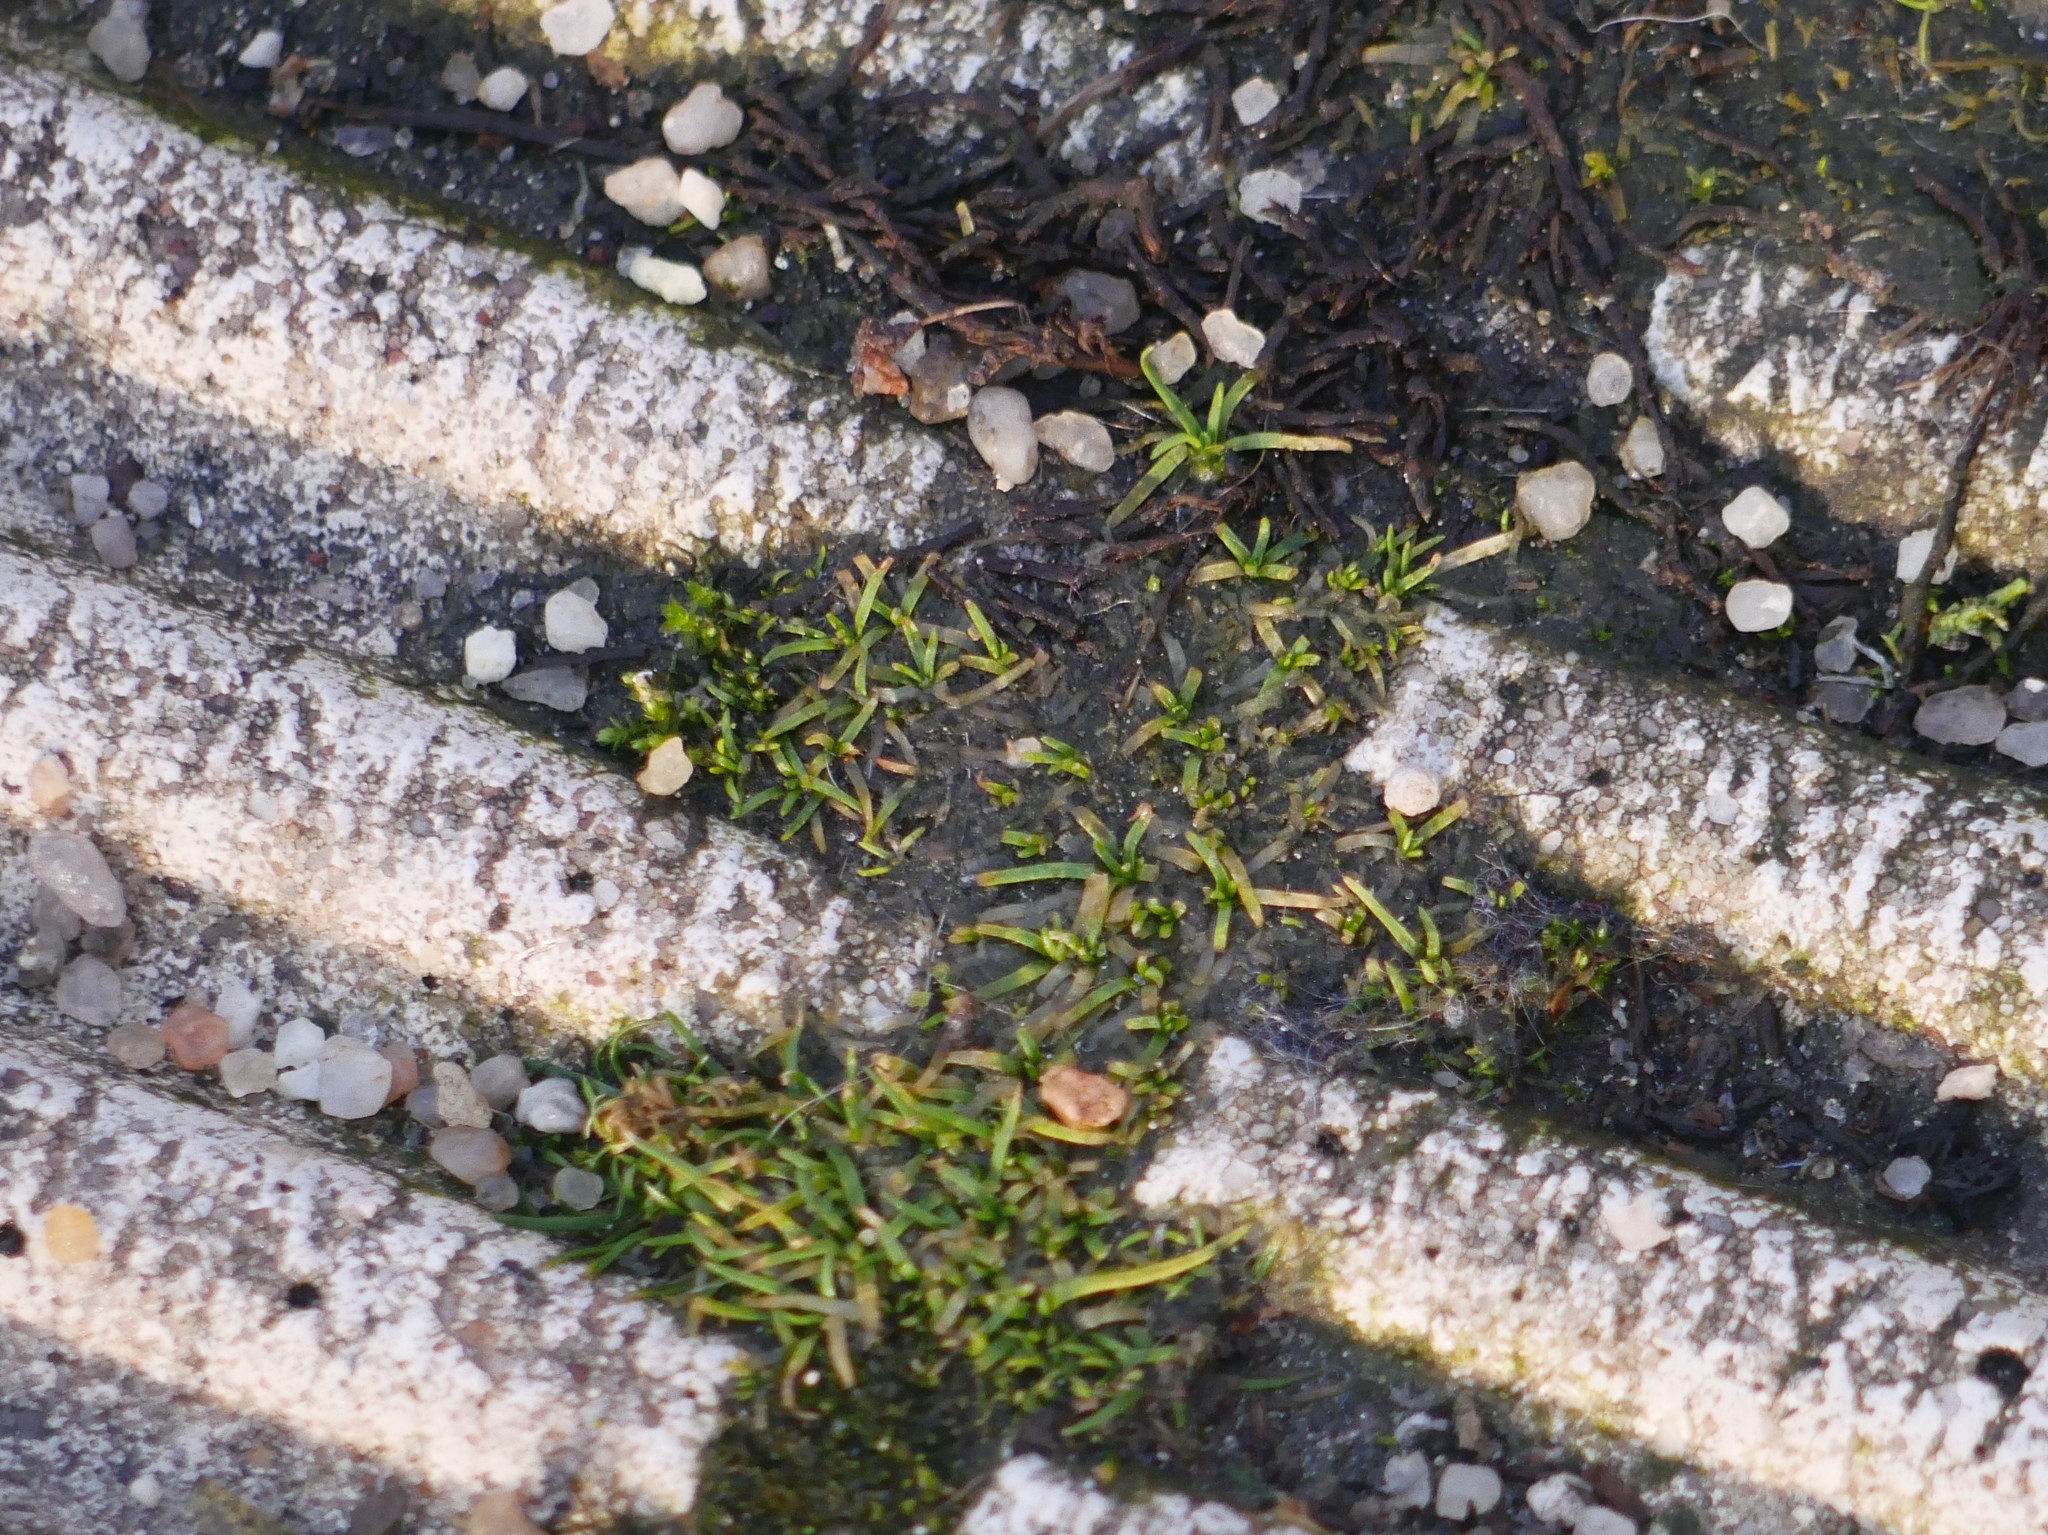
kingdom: Plantae
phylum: Tracheophyta
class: Magnoliopsida
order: Caryophyllales
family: Caryophyllaceae
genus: Sagina
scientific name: Sagina procumbens
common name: Procumbent pearlwort
